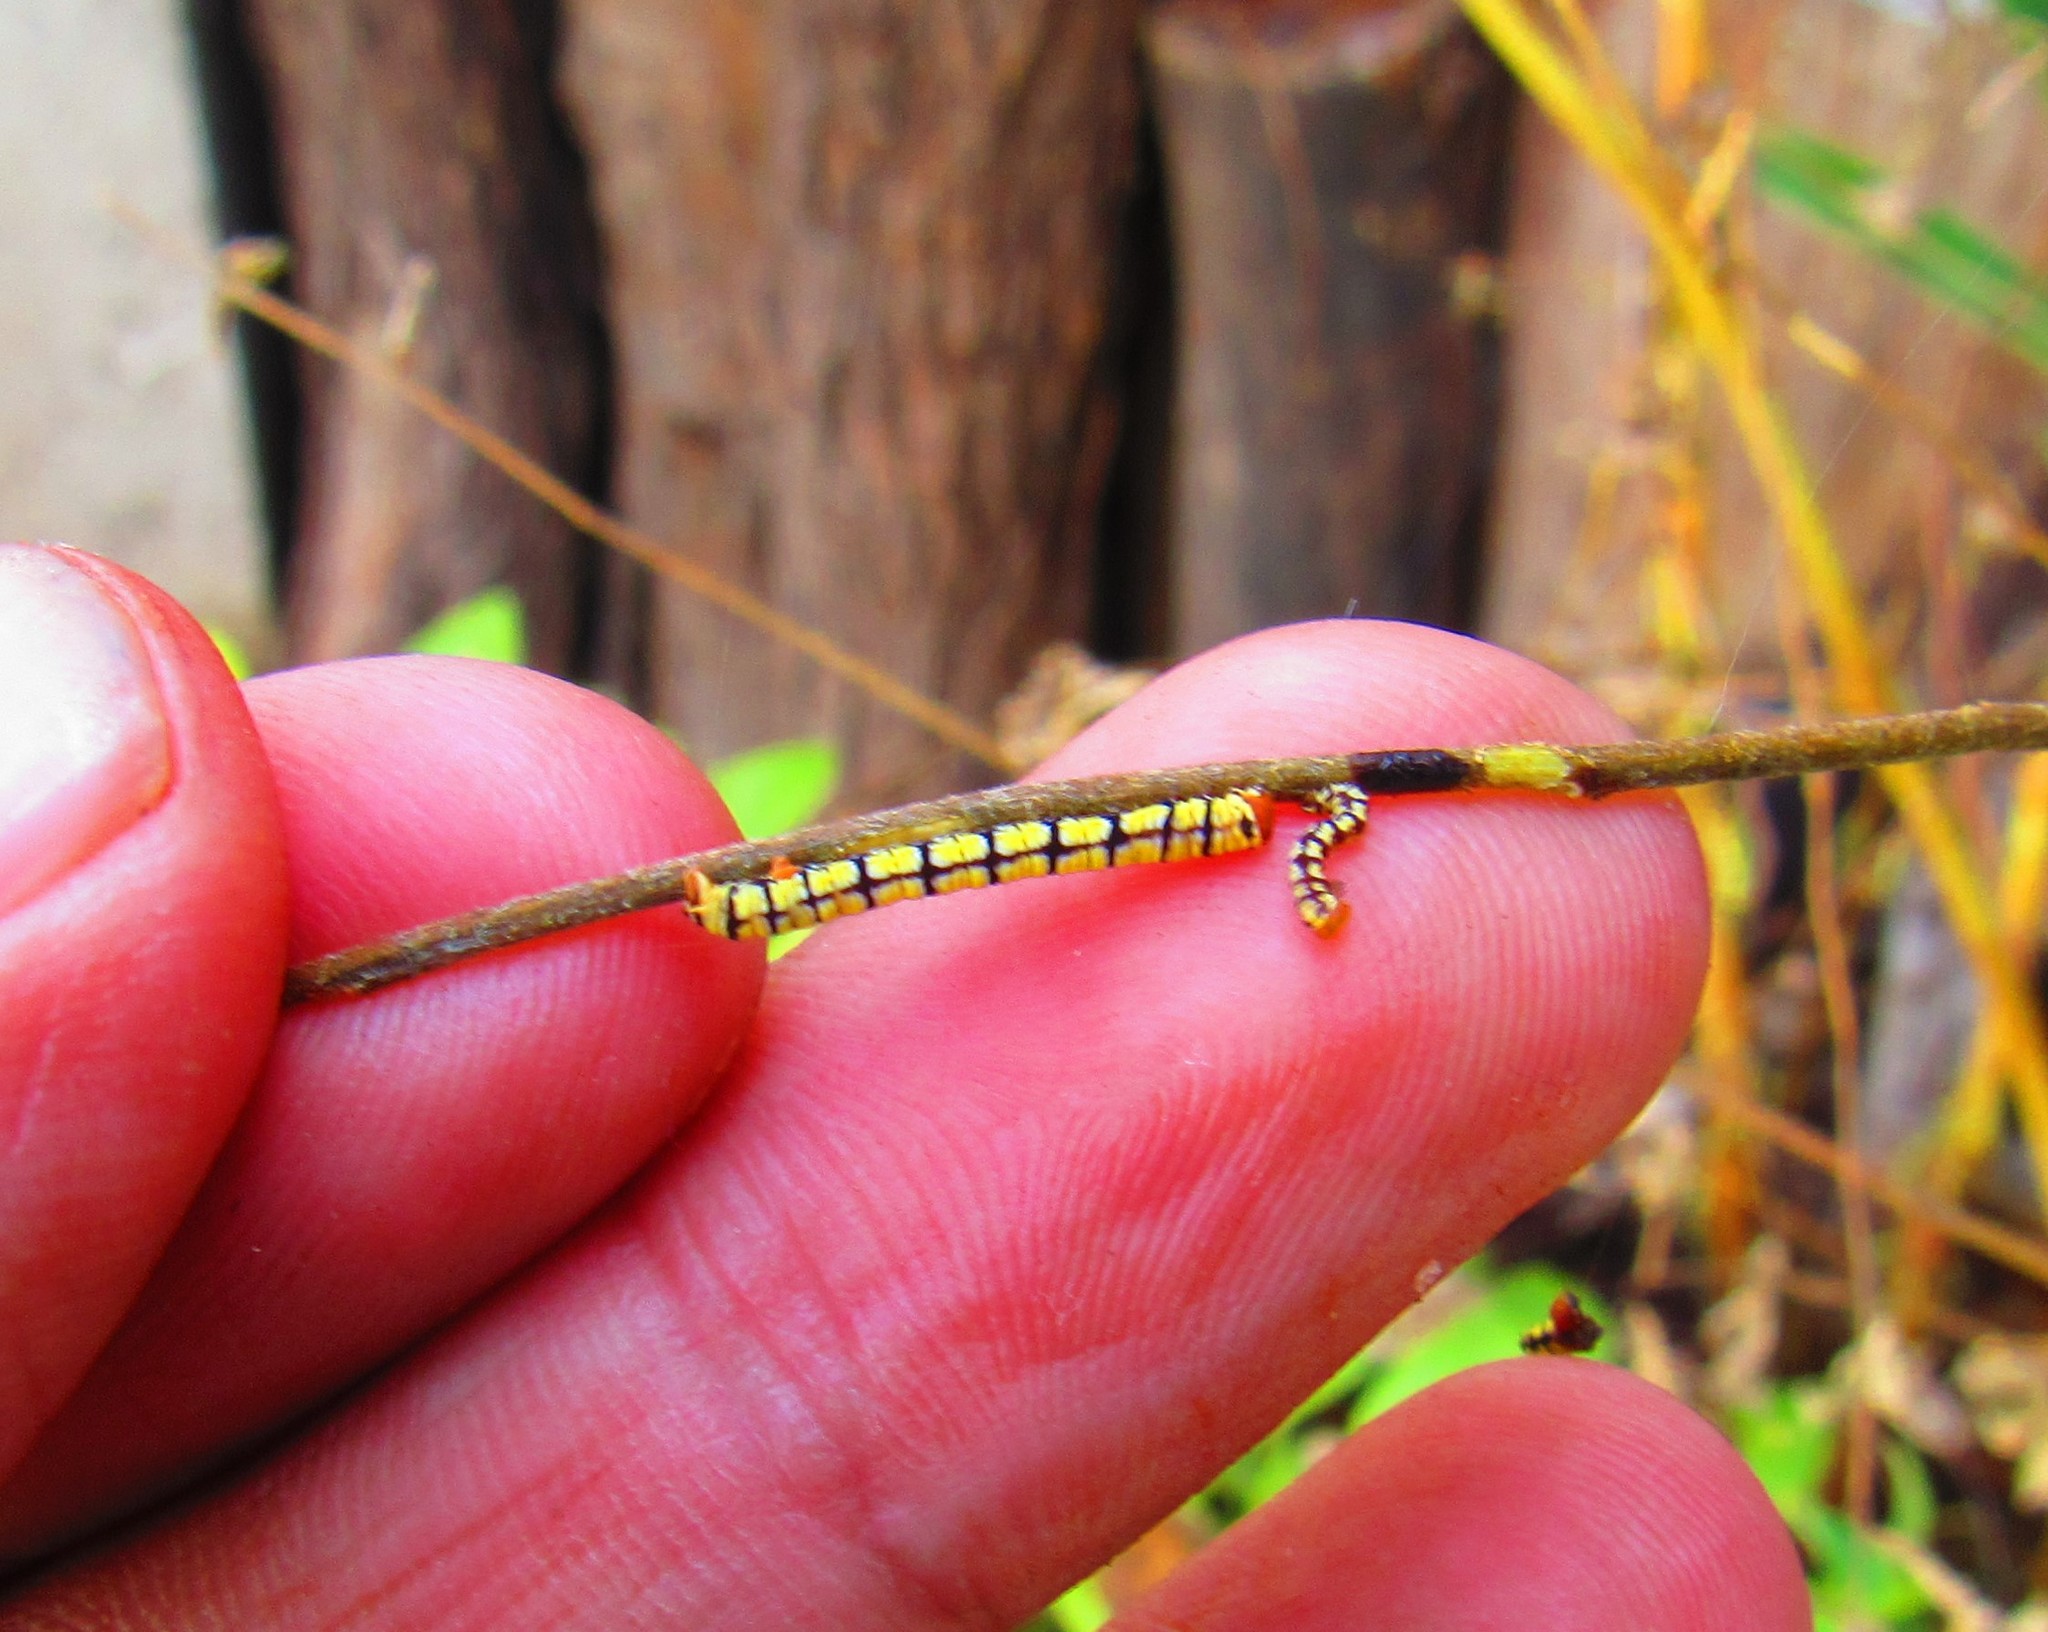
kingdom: Animalia
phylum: Arthropoda
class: Insecta
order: Lepidoptera
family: Geometridae
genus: Melanchroia
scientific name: Melanchroia chephise
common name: White-tipped black
